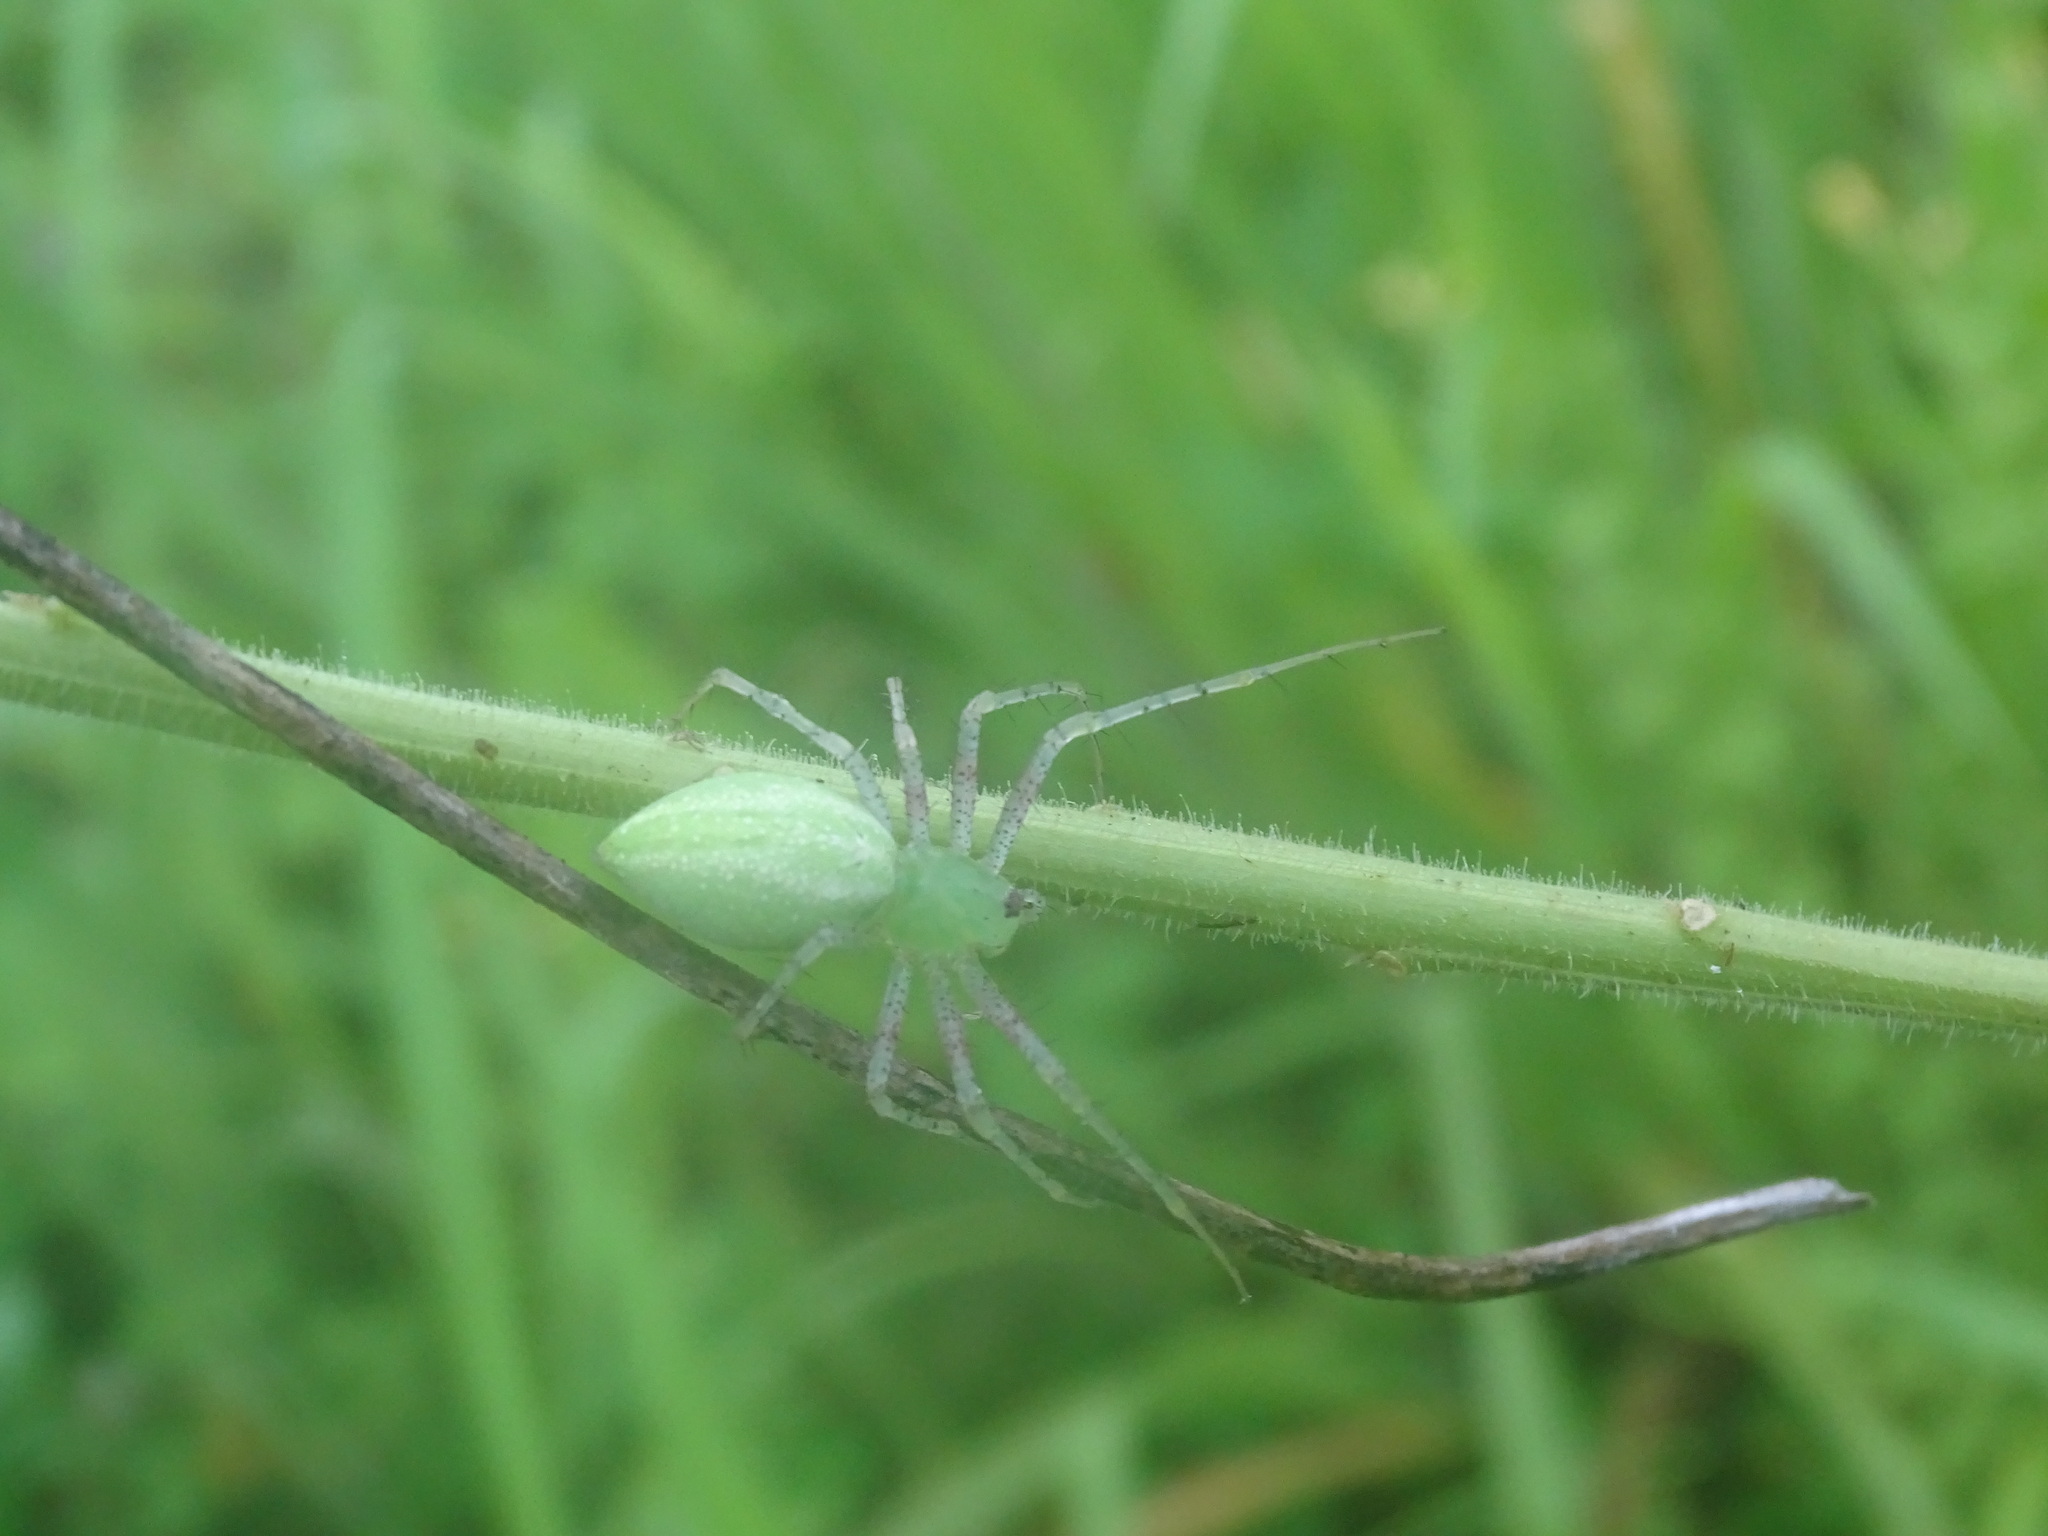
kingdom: Animalia
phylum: Arthropoda
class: Arachnida
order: Araneae
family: Oxyopidae
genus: Peucetia
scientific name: Peucetia longipalpis
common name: Lynx spiders
